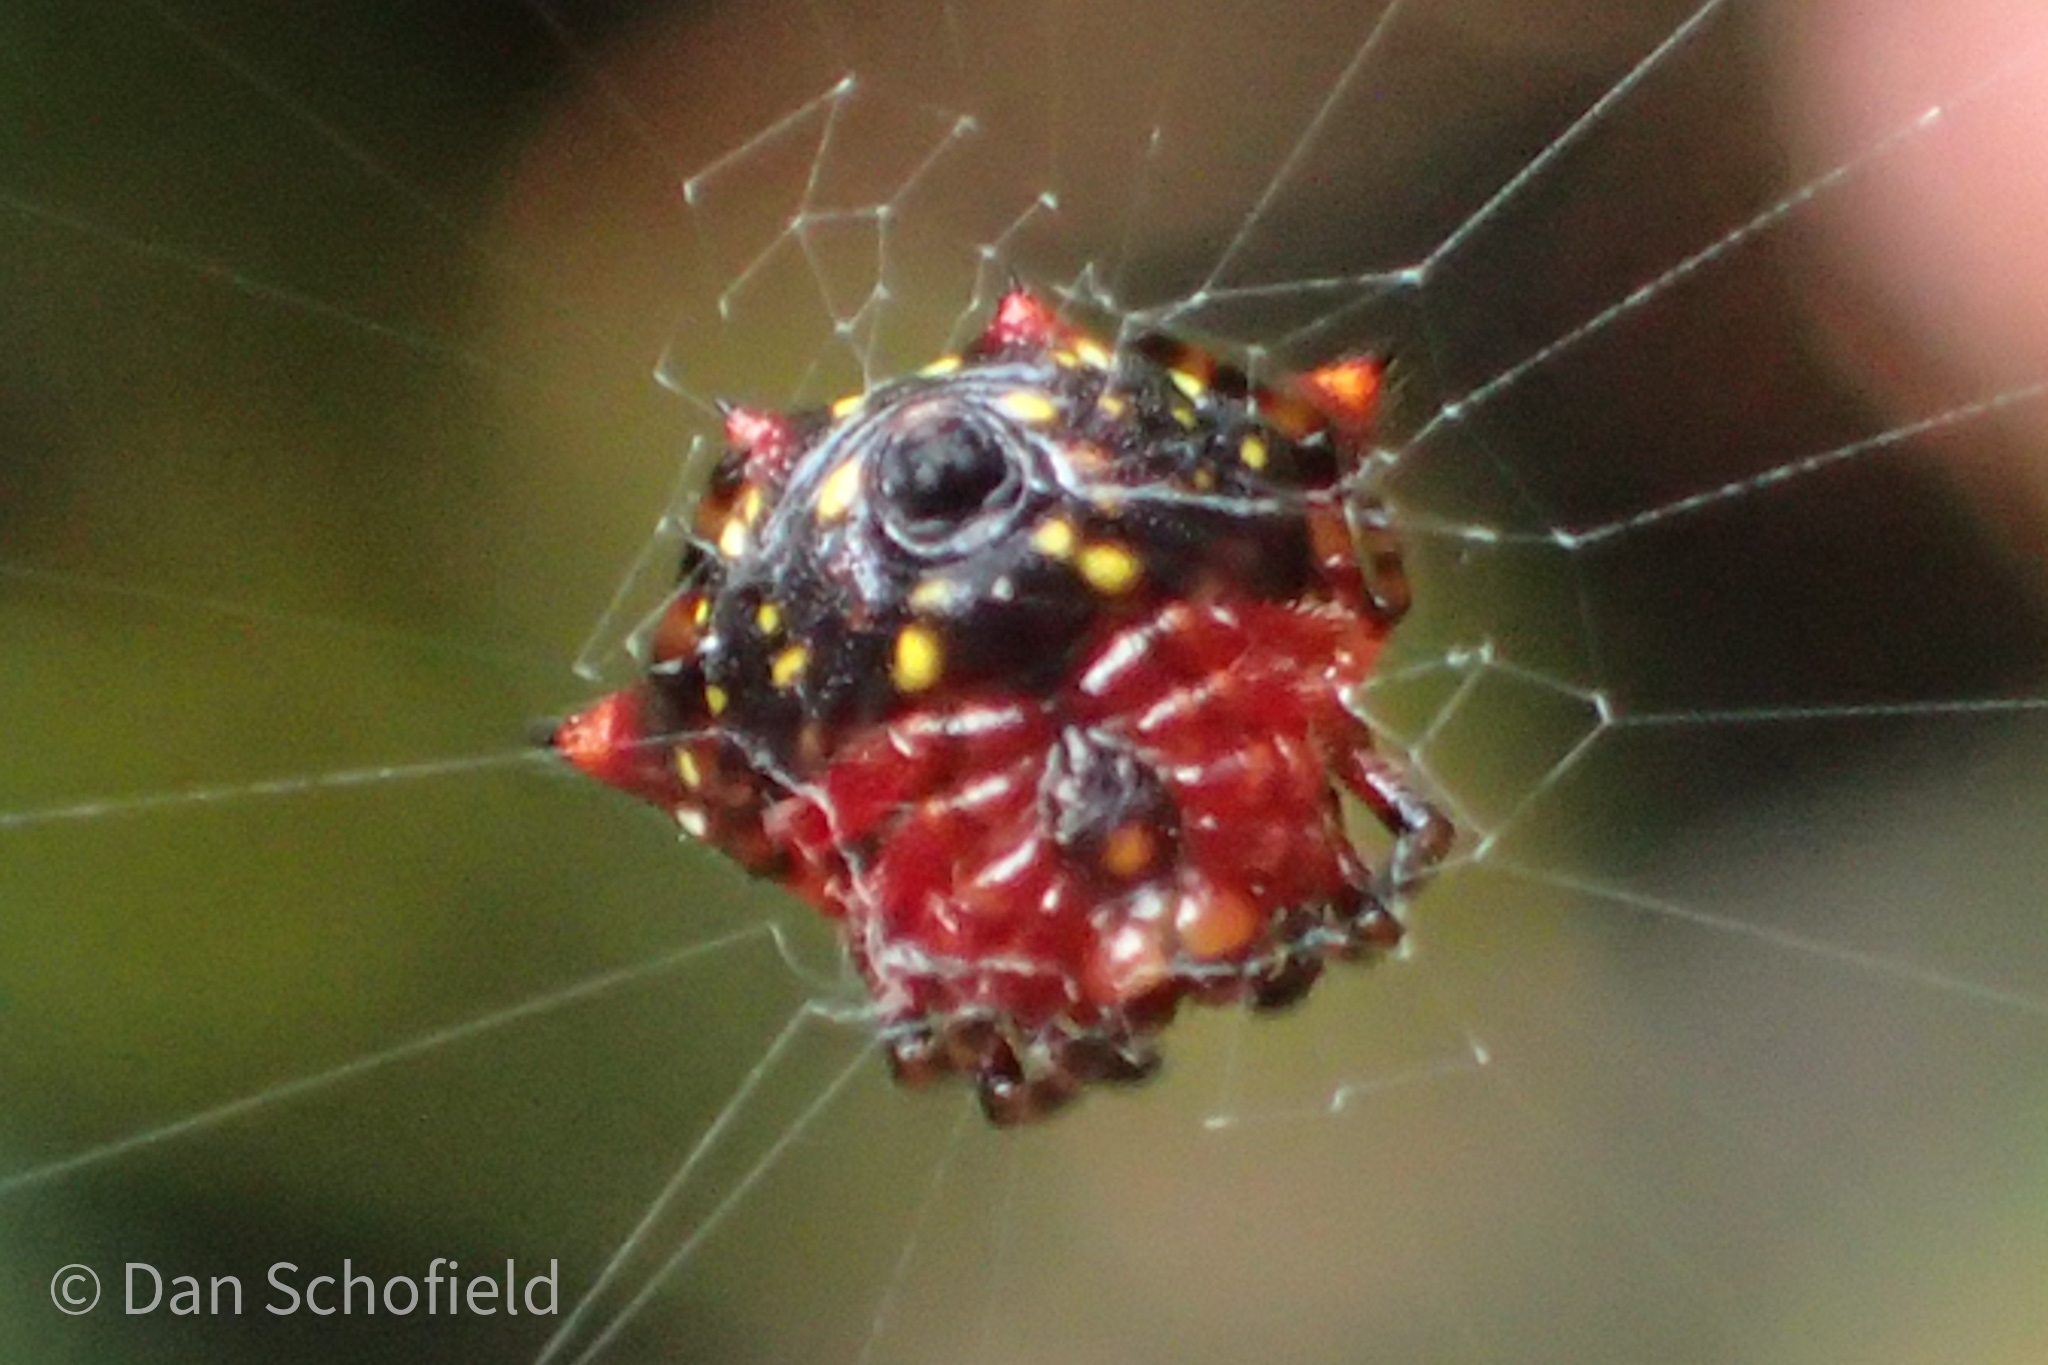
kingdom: Animalia
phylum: Arthropoda
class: Arachnida
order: Araneae
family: Araneidae
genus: Gasteracantha
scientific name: Gasteracantha cancriformis
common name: Orb weavers
